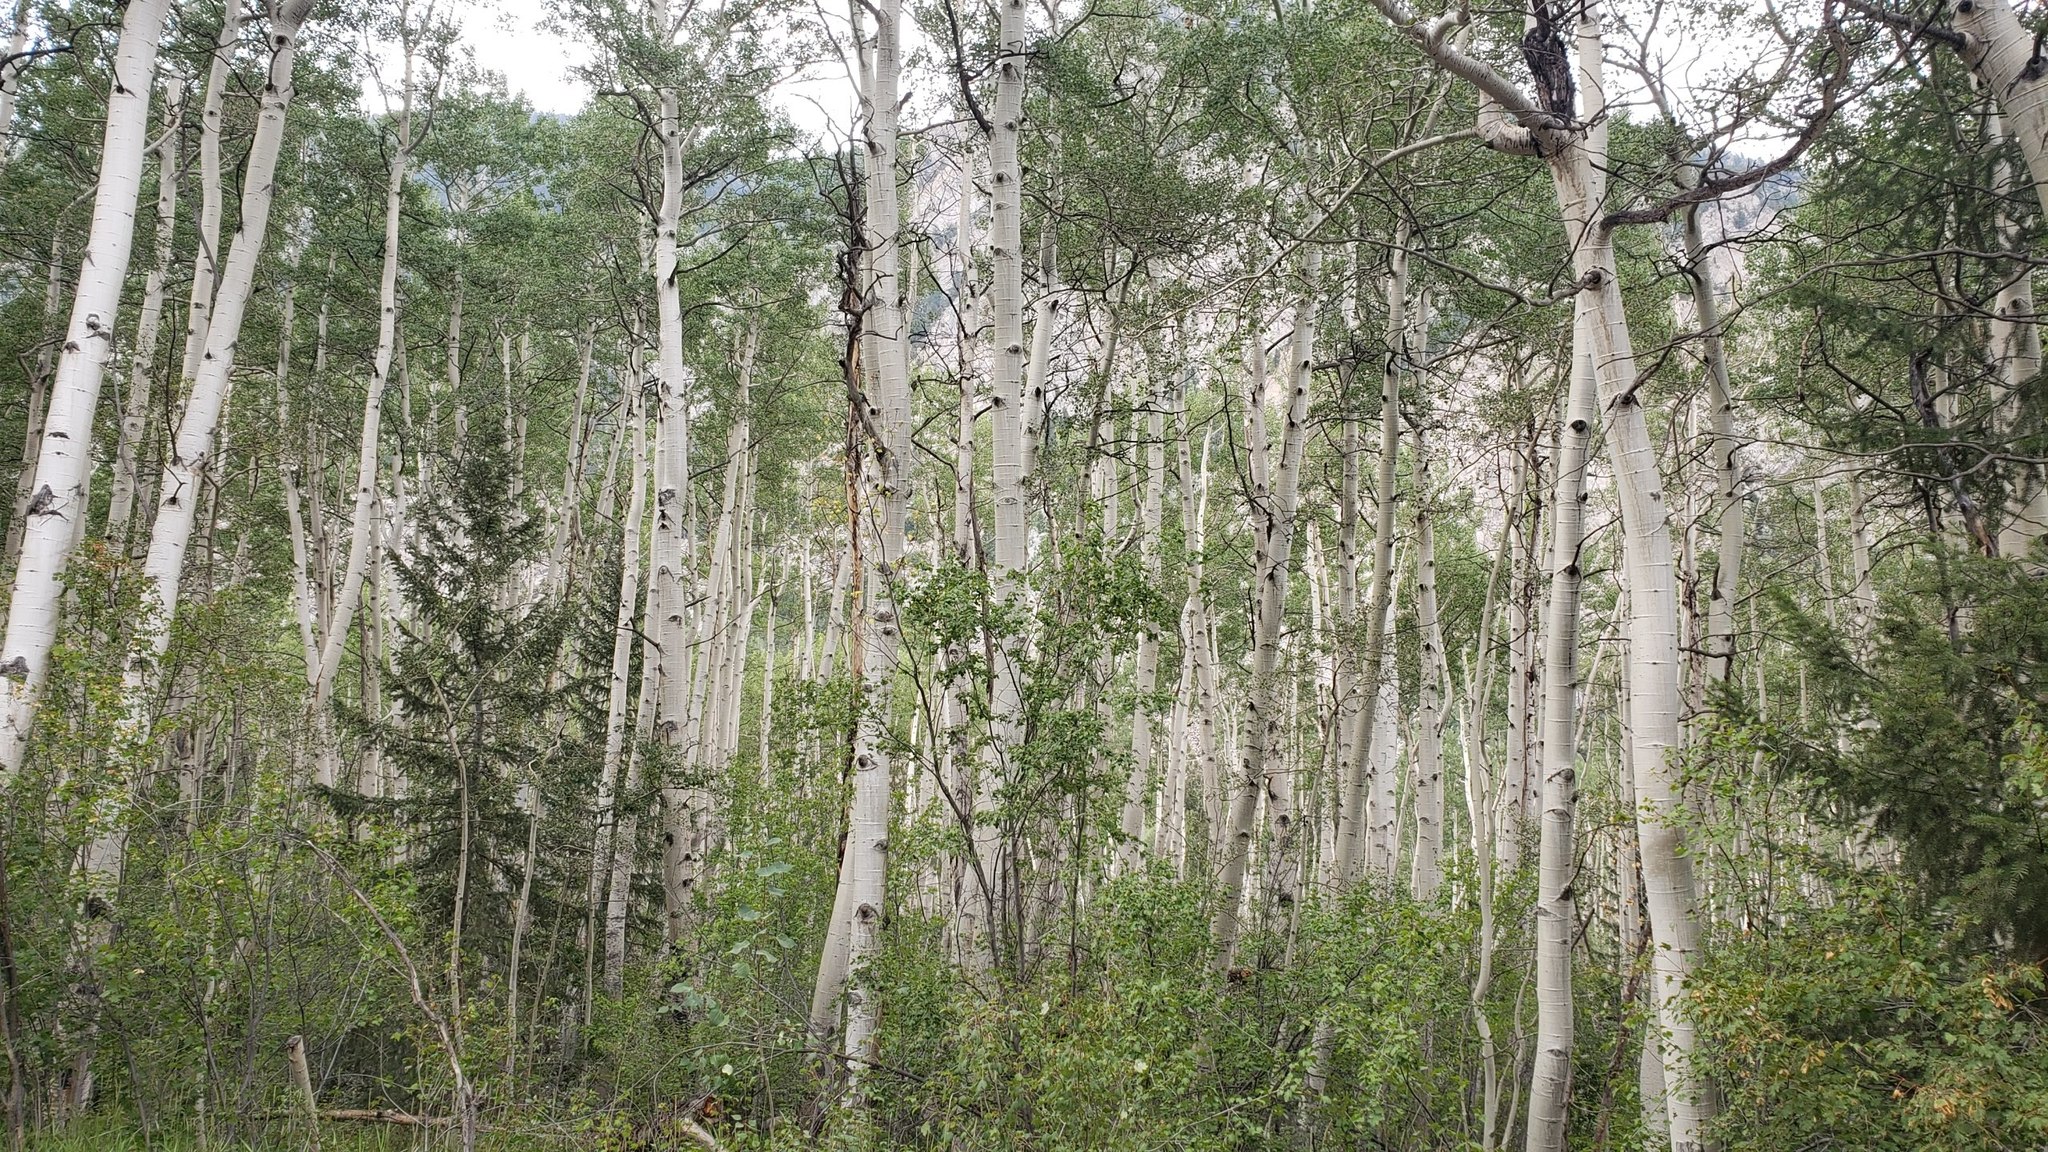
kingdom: Plantae
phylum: Tracheophyta
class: Magnoliopsida
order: Malpighiales
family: Salicaceae
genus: Populus
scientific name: Populus tremuloides
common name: Quaking aspen
